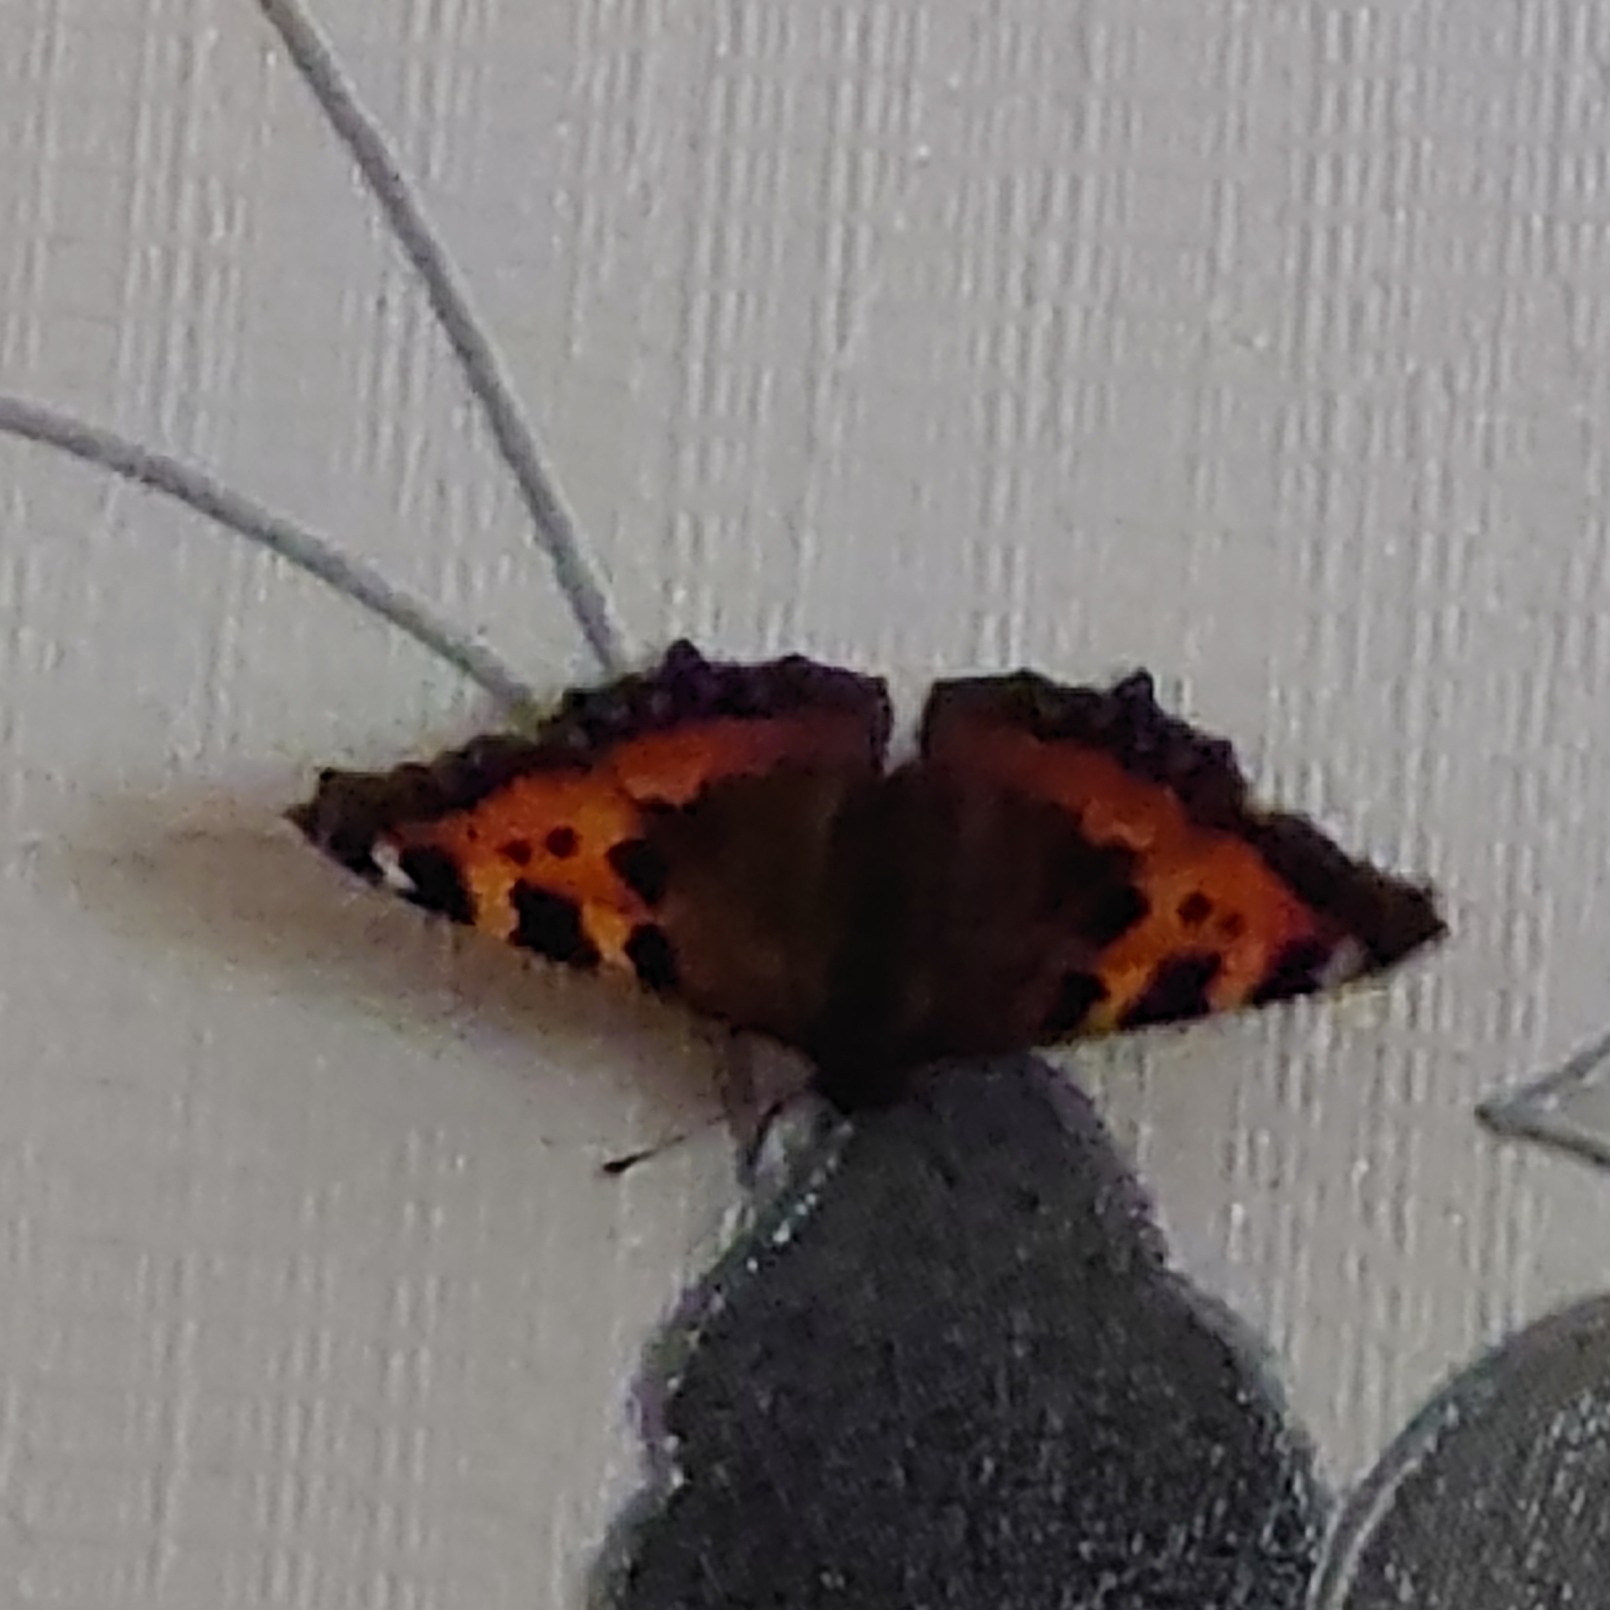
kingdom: Animalia
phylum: Arthropoda
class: Insecta
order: Lepidoptera
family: Nymphalidae
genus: Aglais
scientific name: Aglais urticae
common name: Small tortoiseshell
